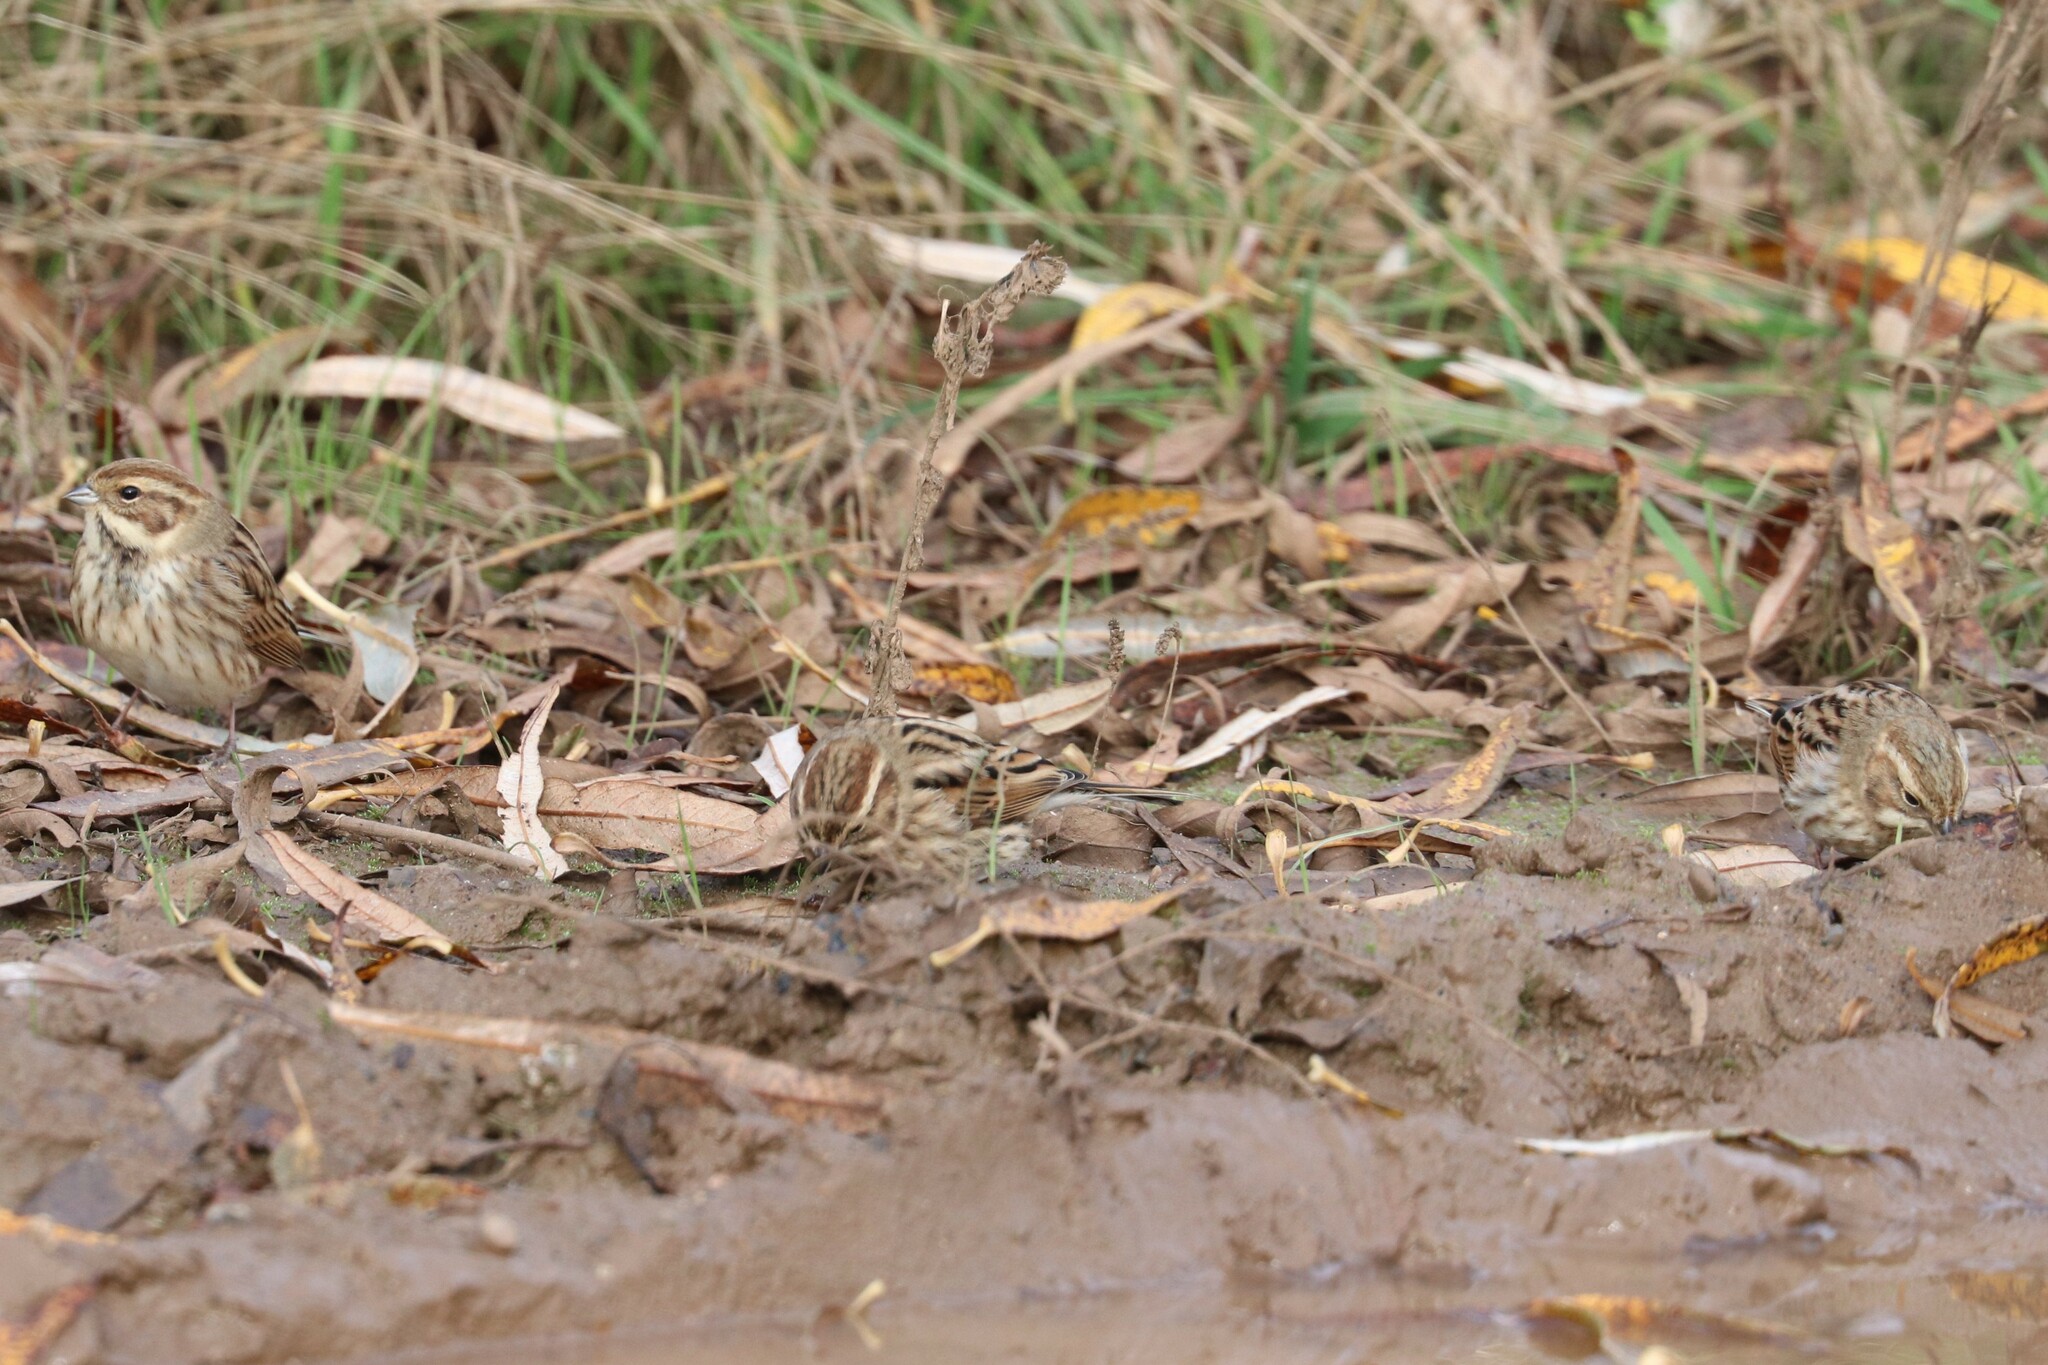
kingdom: Animalia
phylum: Chordata
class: Aves
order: Passeriformes
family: Emberizidae
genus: Emberiza
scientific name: Emberiza schoeniclus
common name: Reed bunting
